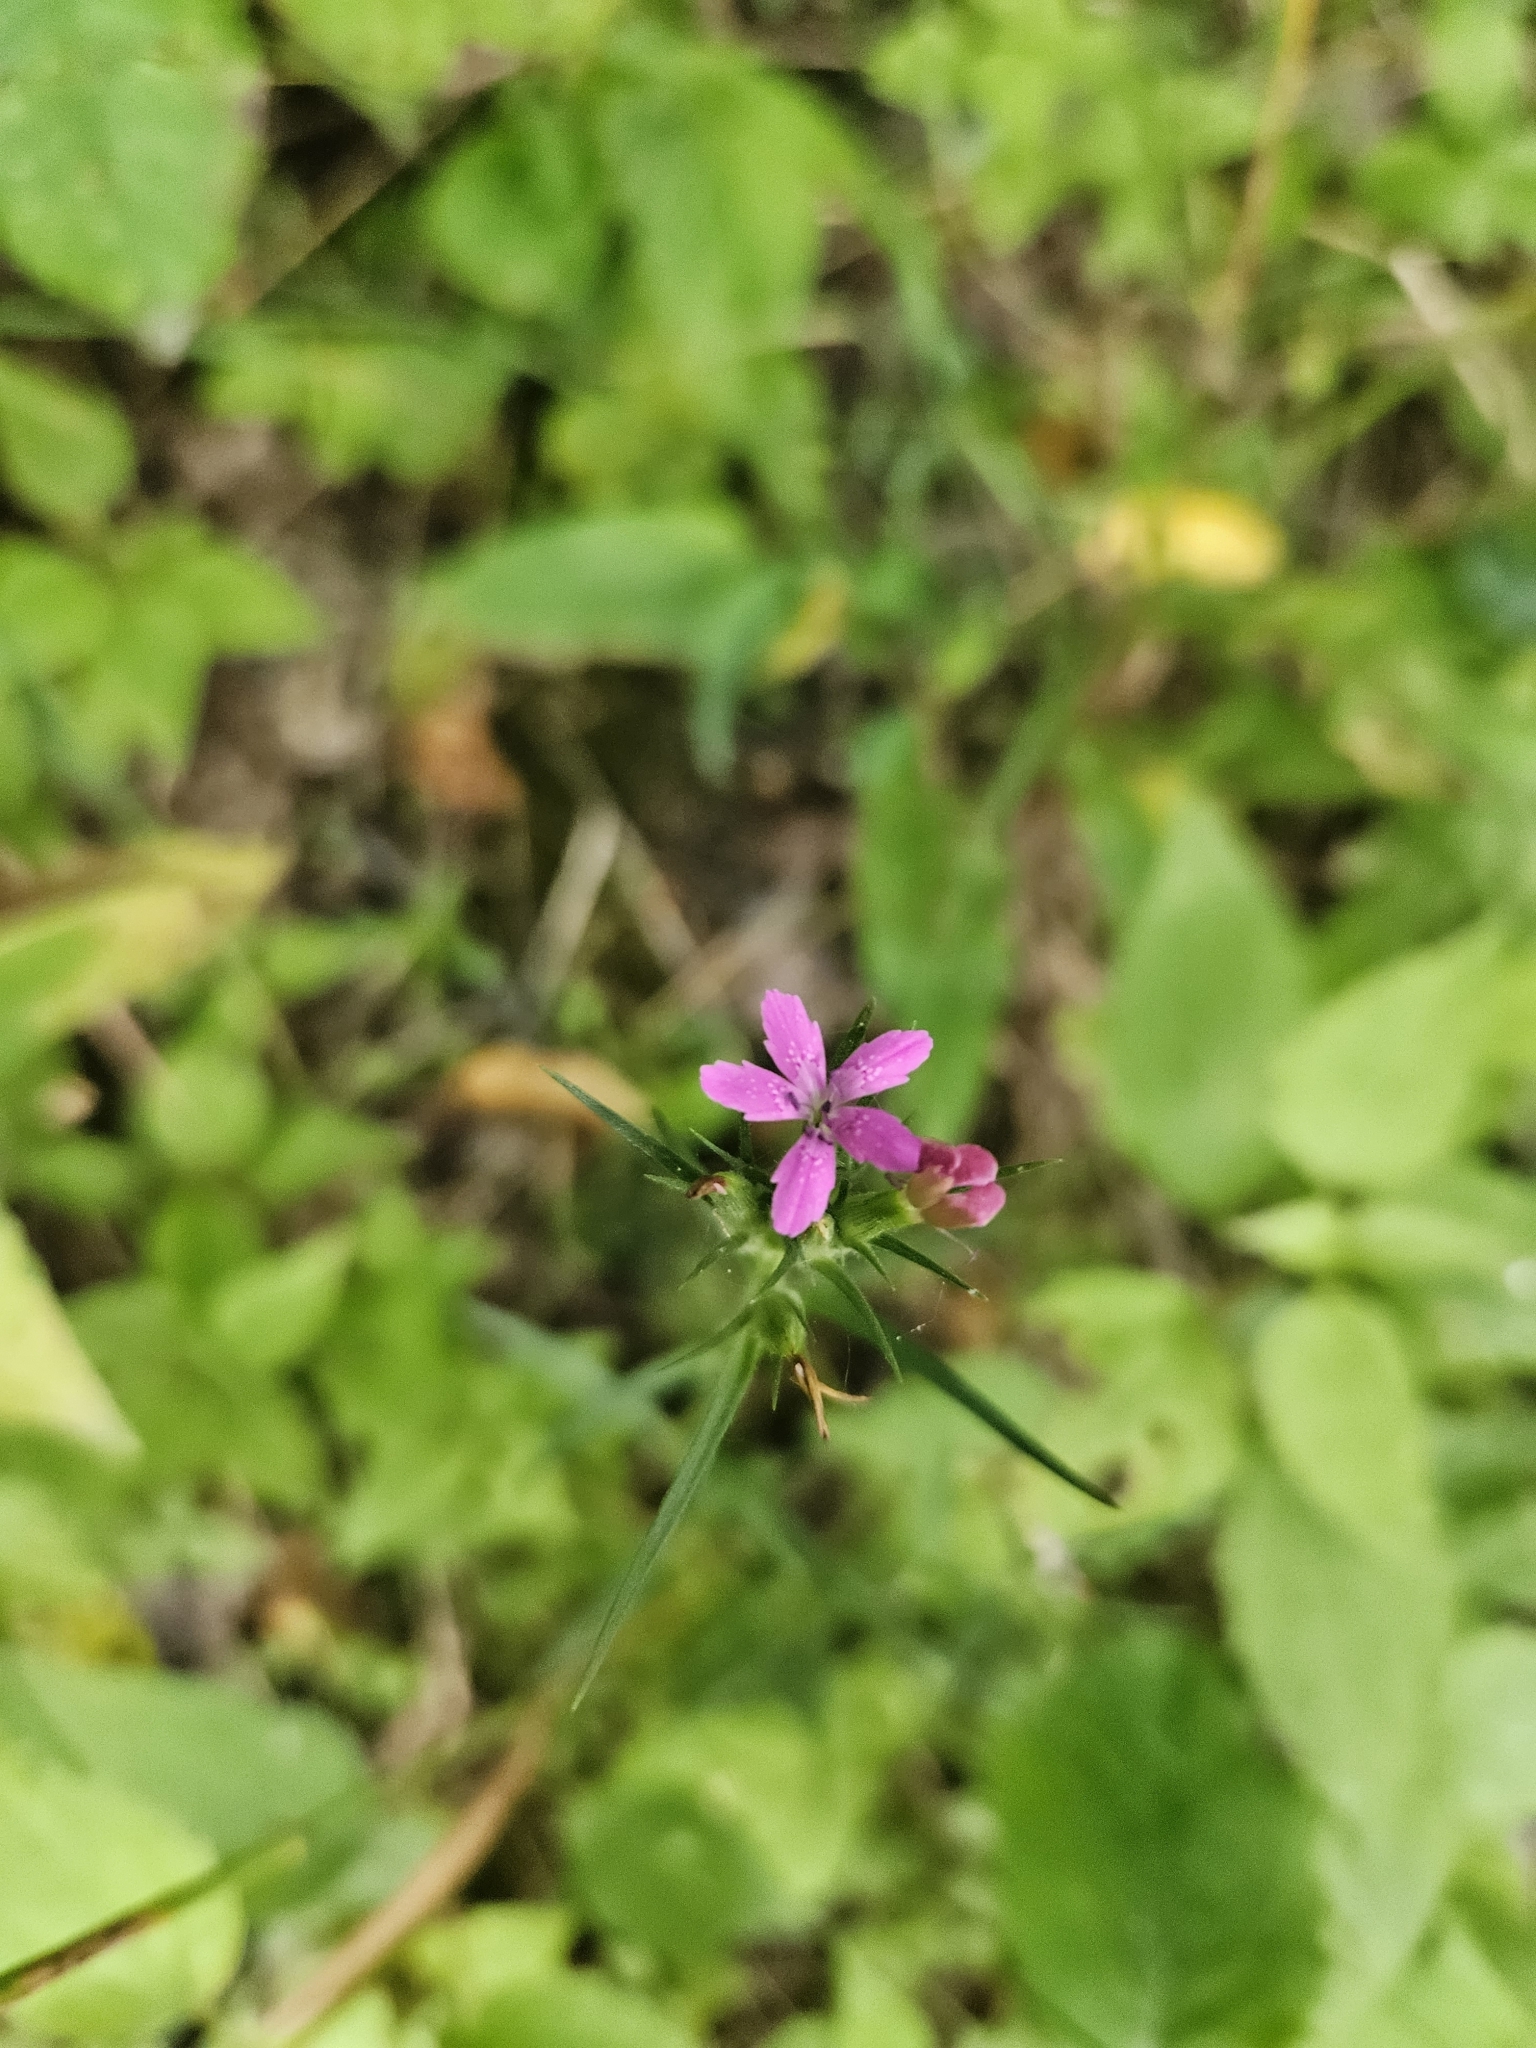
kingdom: Plantae
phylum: Tracheophyta
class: Magnoliopsida
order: Caryophyllales
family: Caryophyllaceae
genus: Dianthus
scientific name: Dianthus armeria
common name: Deptford pink
